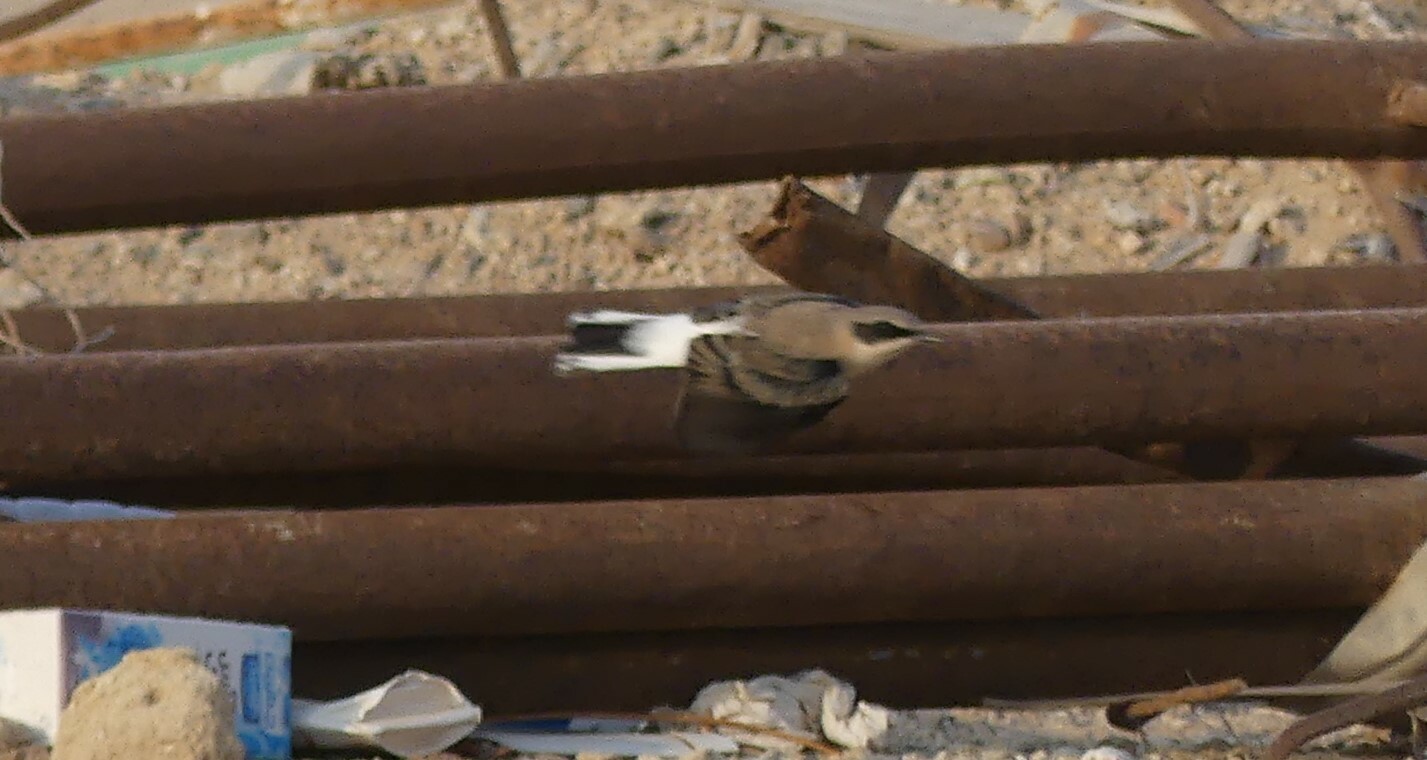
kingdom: Animalia
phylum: Chordata
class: Aves
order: Passeriformes
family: Muscicapidae
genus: Oenanthe
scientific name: Oenanthe hispanica
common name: Black-eared wheatear
